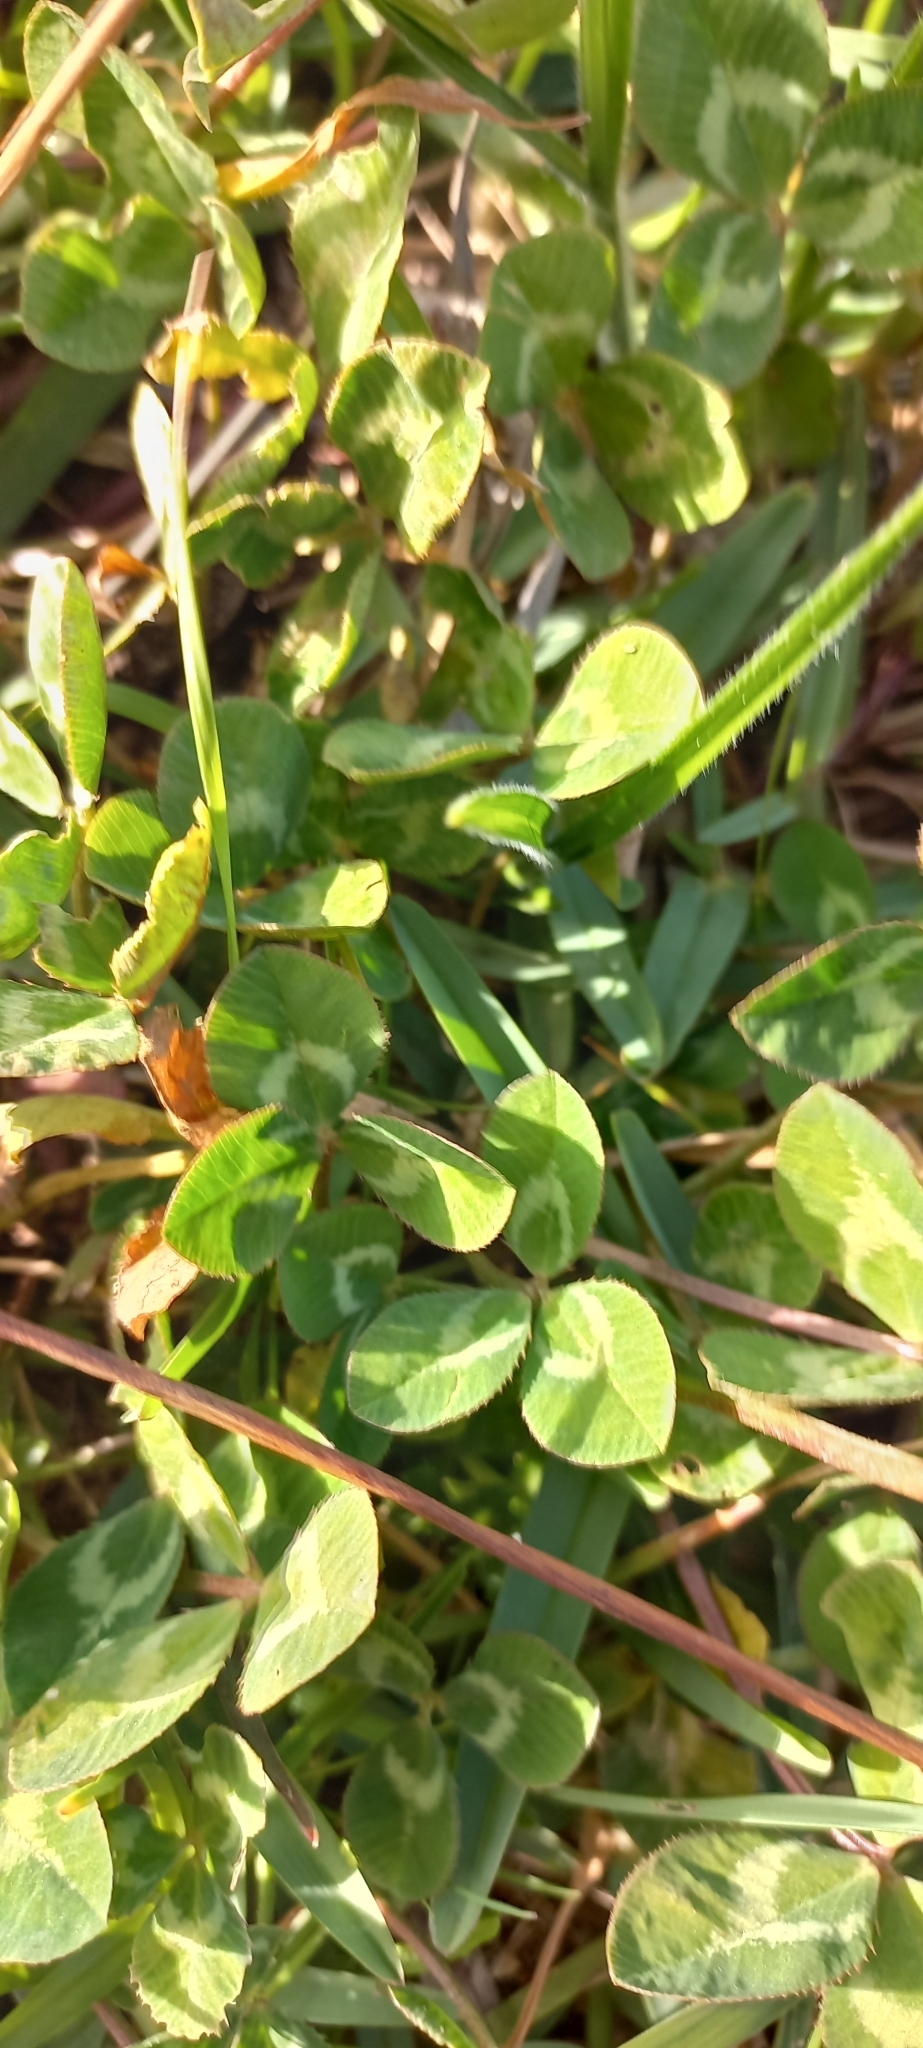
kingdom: Plantae
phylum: Tracheophyta
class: Magnoliopsida
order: Fabales
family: Fabaceae
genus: Trifolium
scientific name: Trifolium repens
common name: White clover
